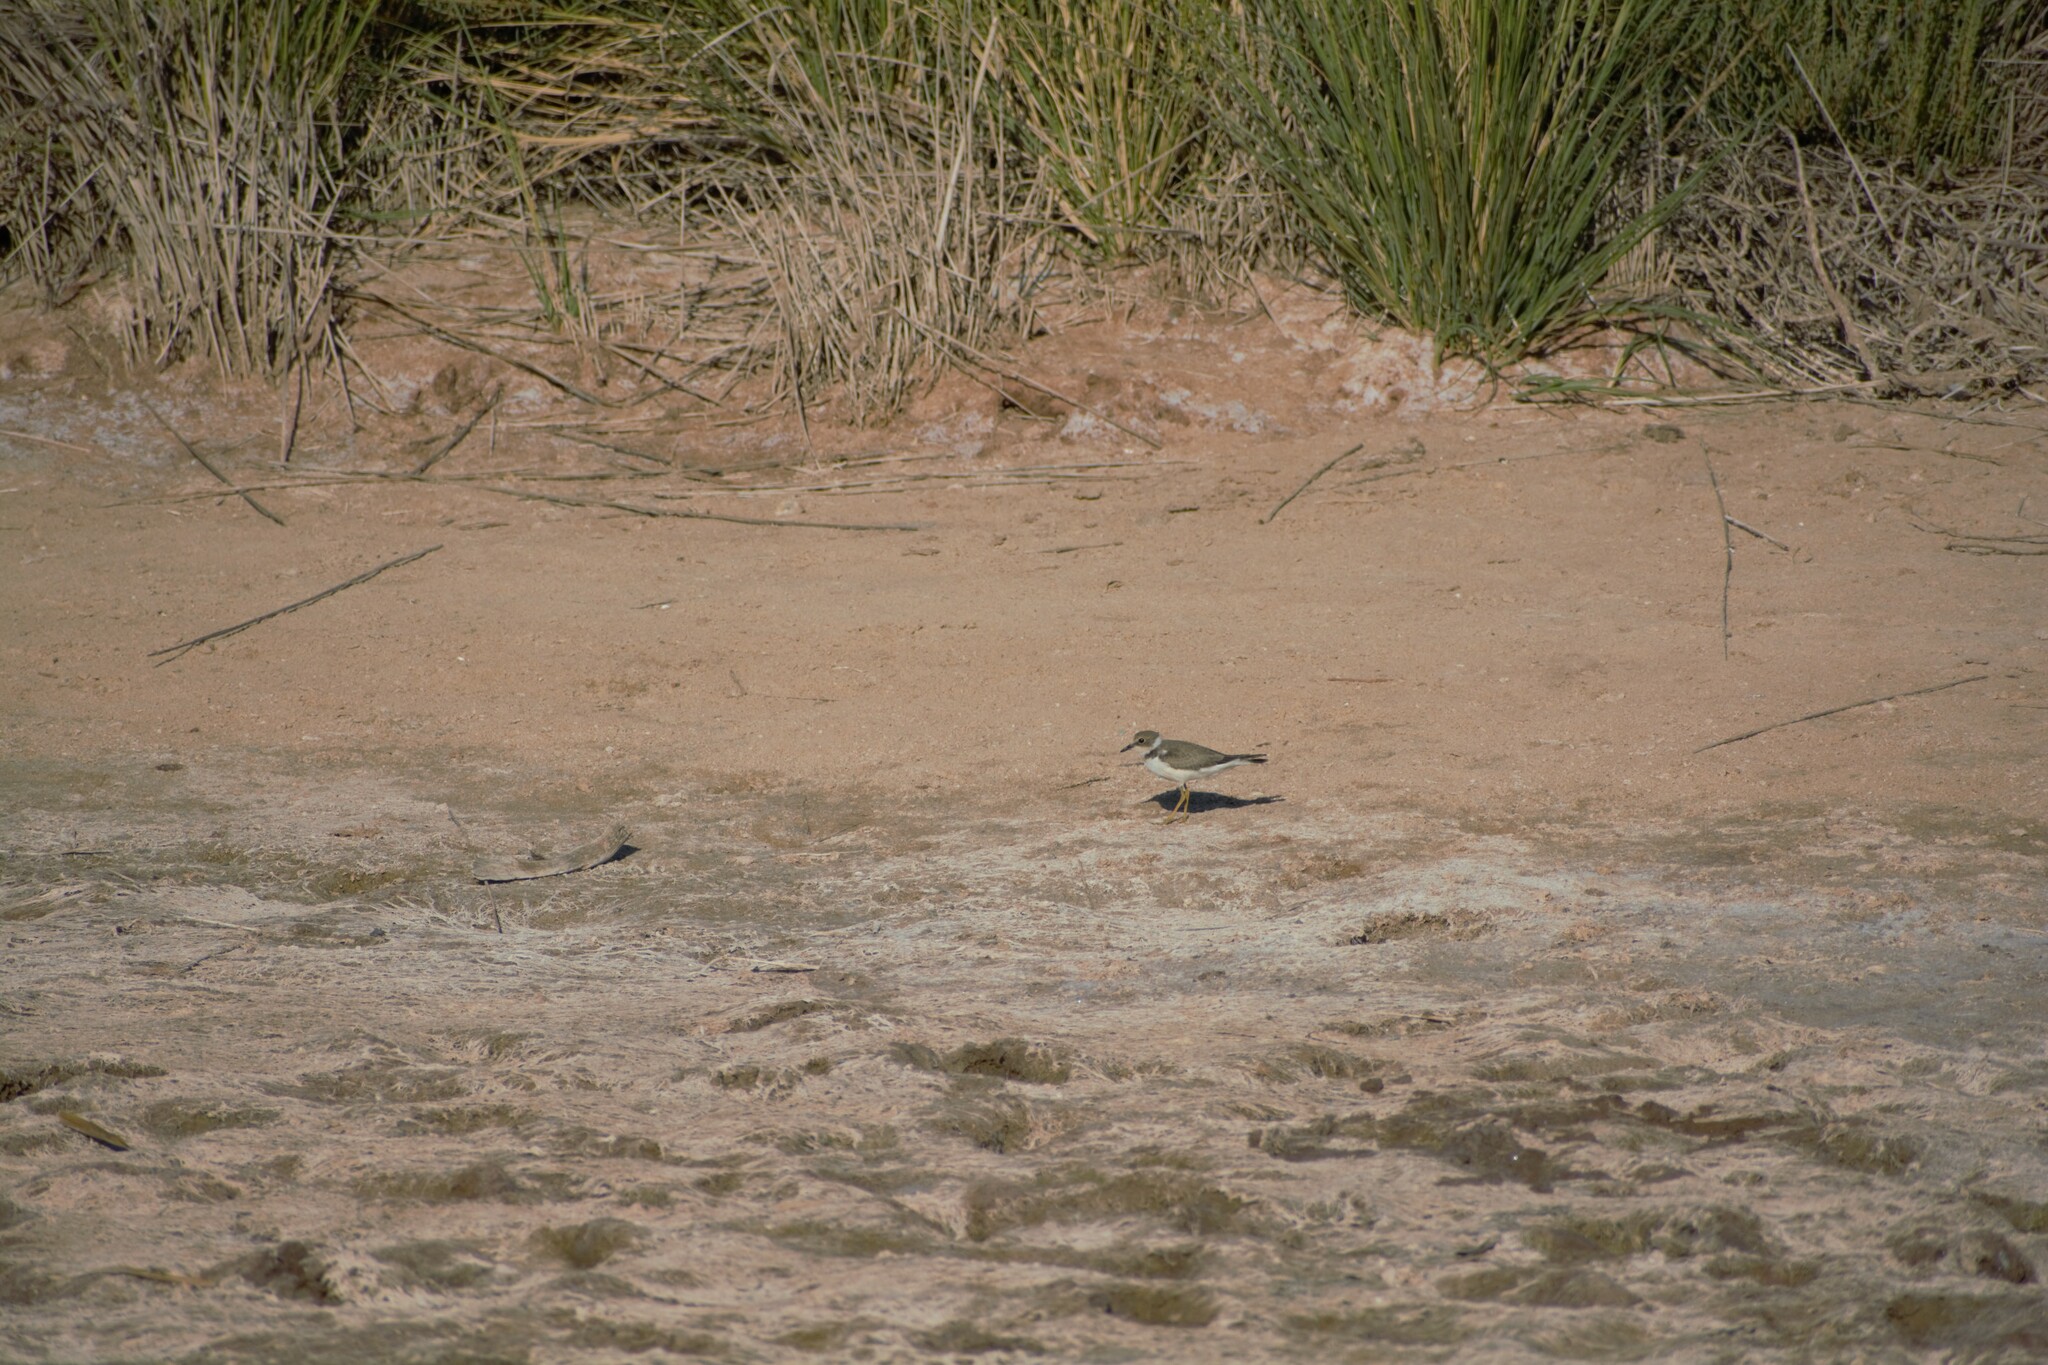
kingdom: Animalia
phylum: Chordata
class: Aves
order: Charadriiformes
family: Charadriidae
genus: Charadrius
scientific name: Charadrius dubius
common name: Little ringed plover
